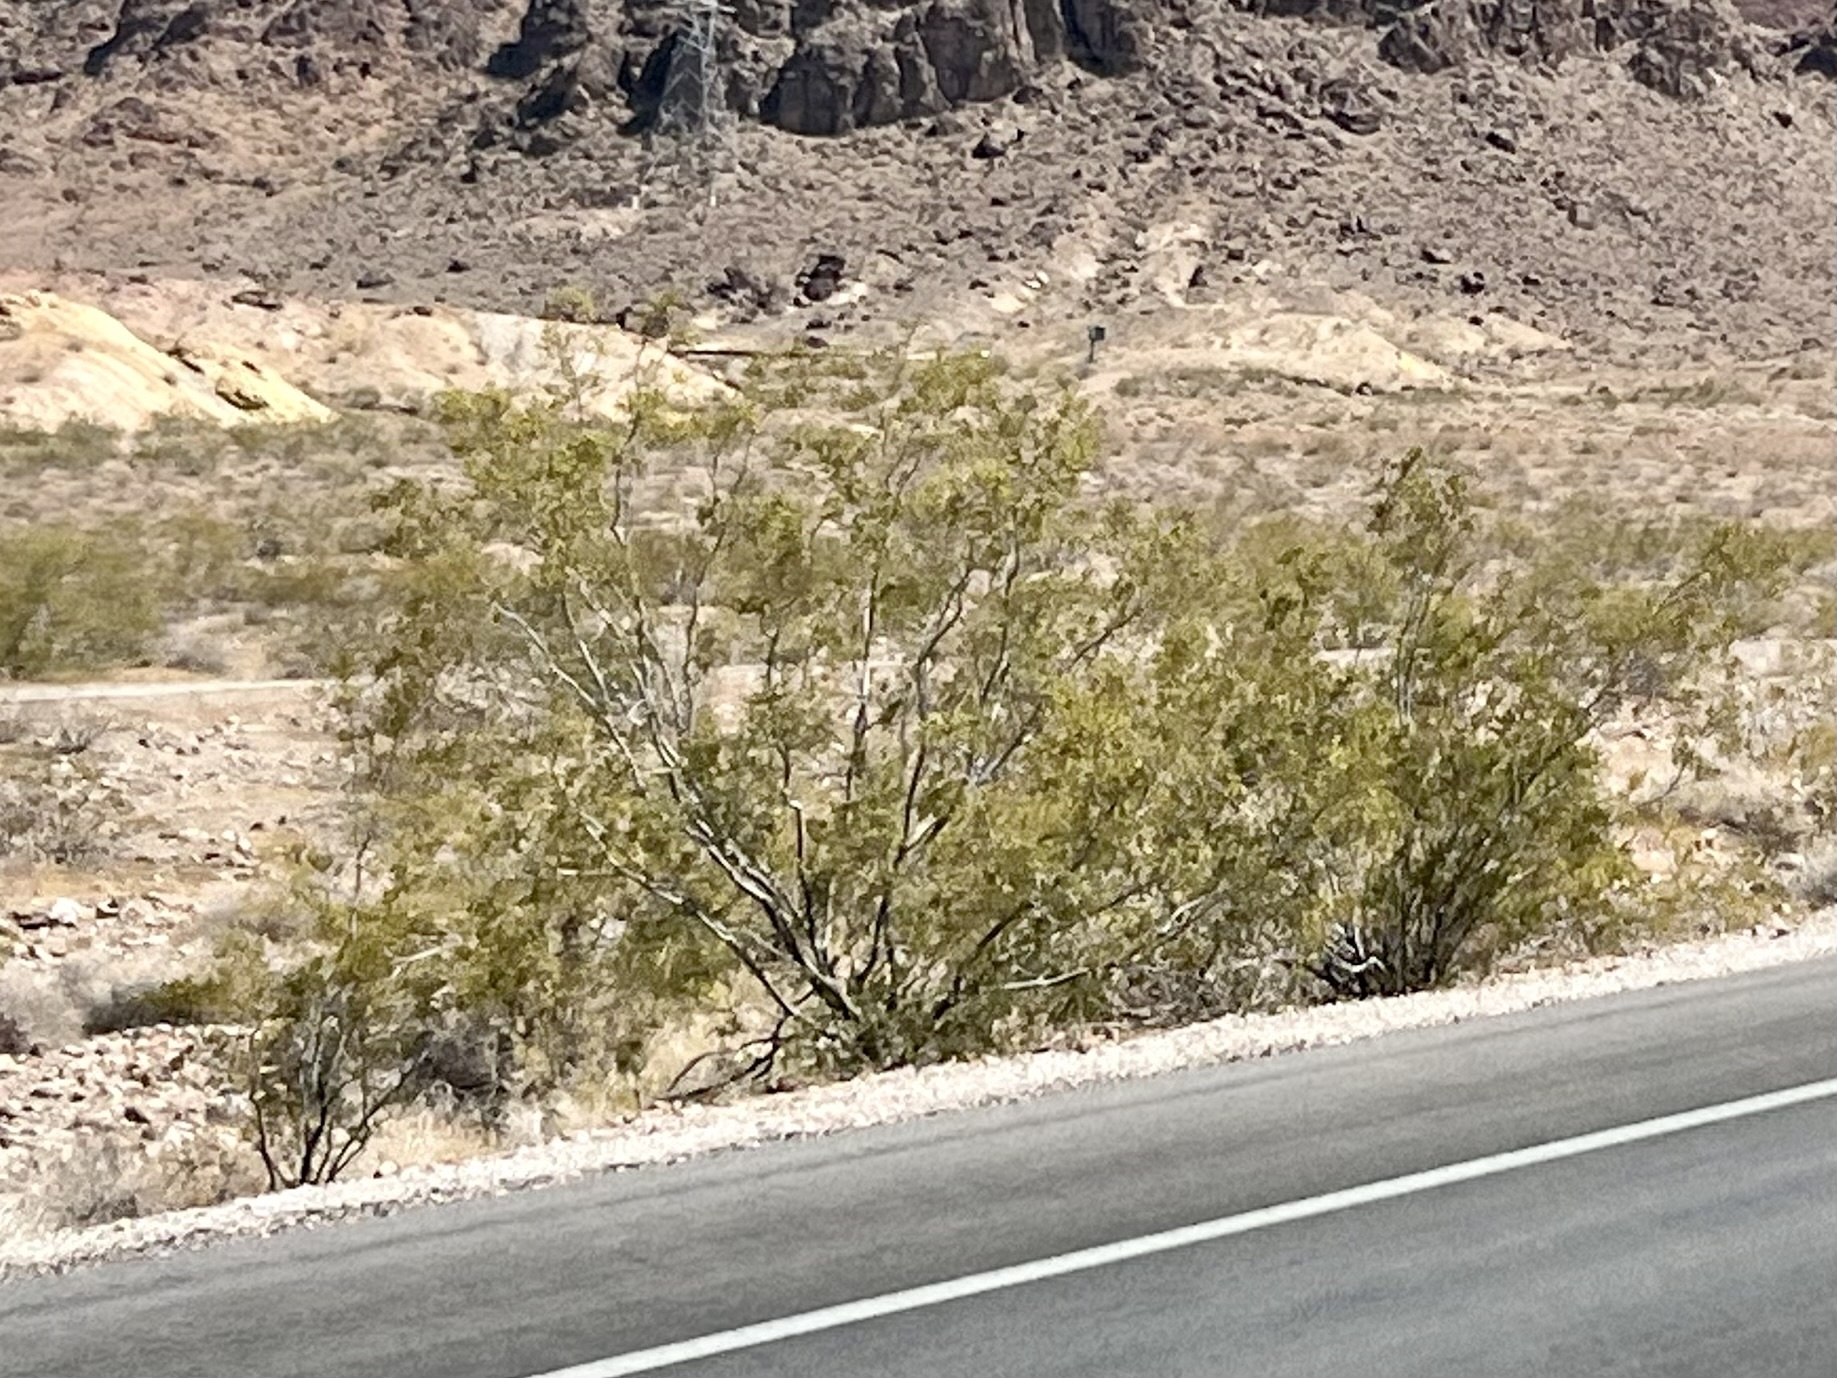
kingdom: Plantae
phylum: Tracheophyta
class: Magnoliopsida
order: Zygophyllales
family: Zygophyllaceae
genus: Larrea
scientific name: Larrea tridentata
